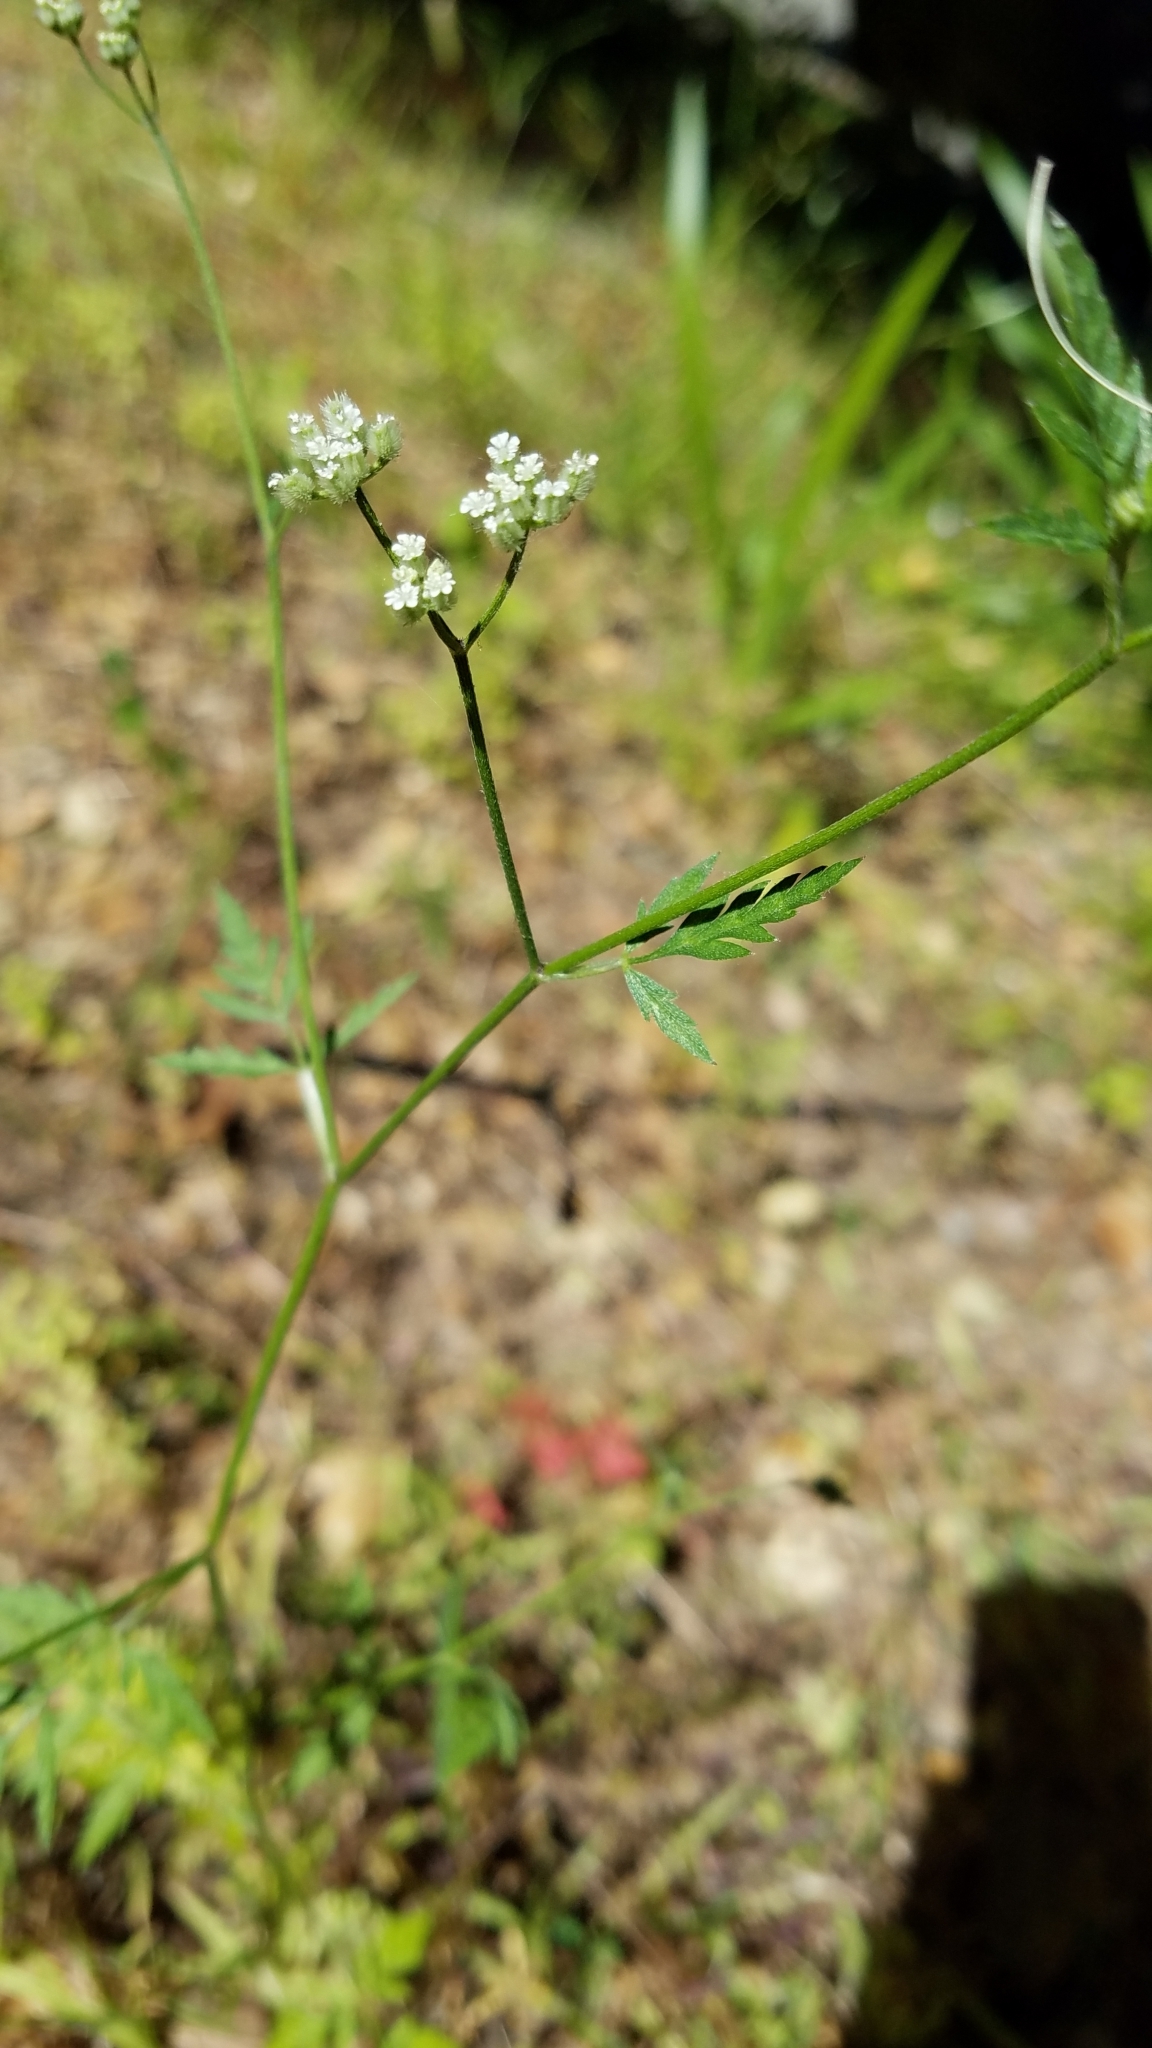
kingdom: Plantae
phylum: Tracheophyta
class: Magnoliopsida
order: Apiales
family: Apiaceae
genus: Torilis
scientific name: Torilis arvensis
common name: Spreading hedge-parsley
